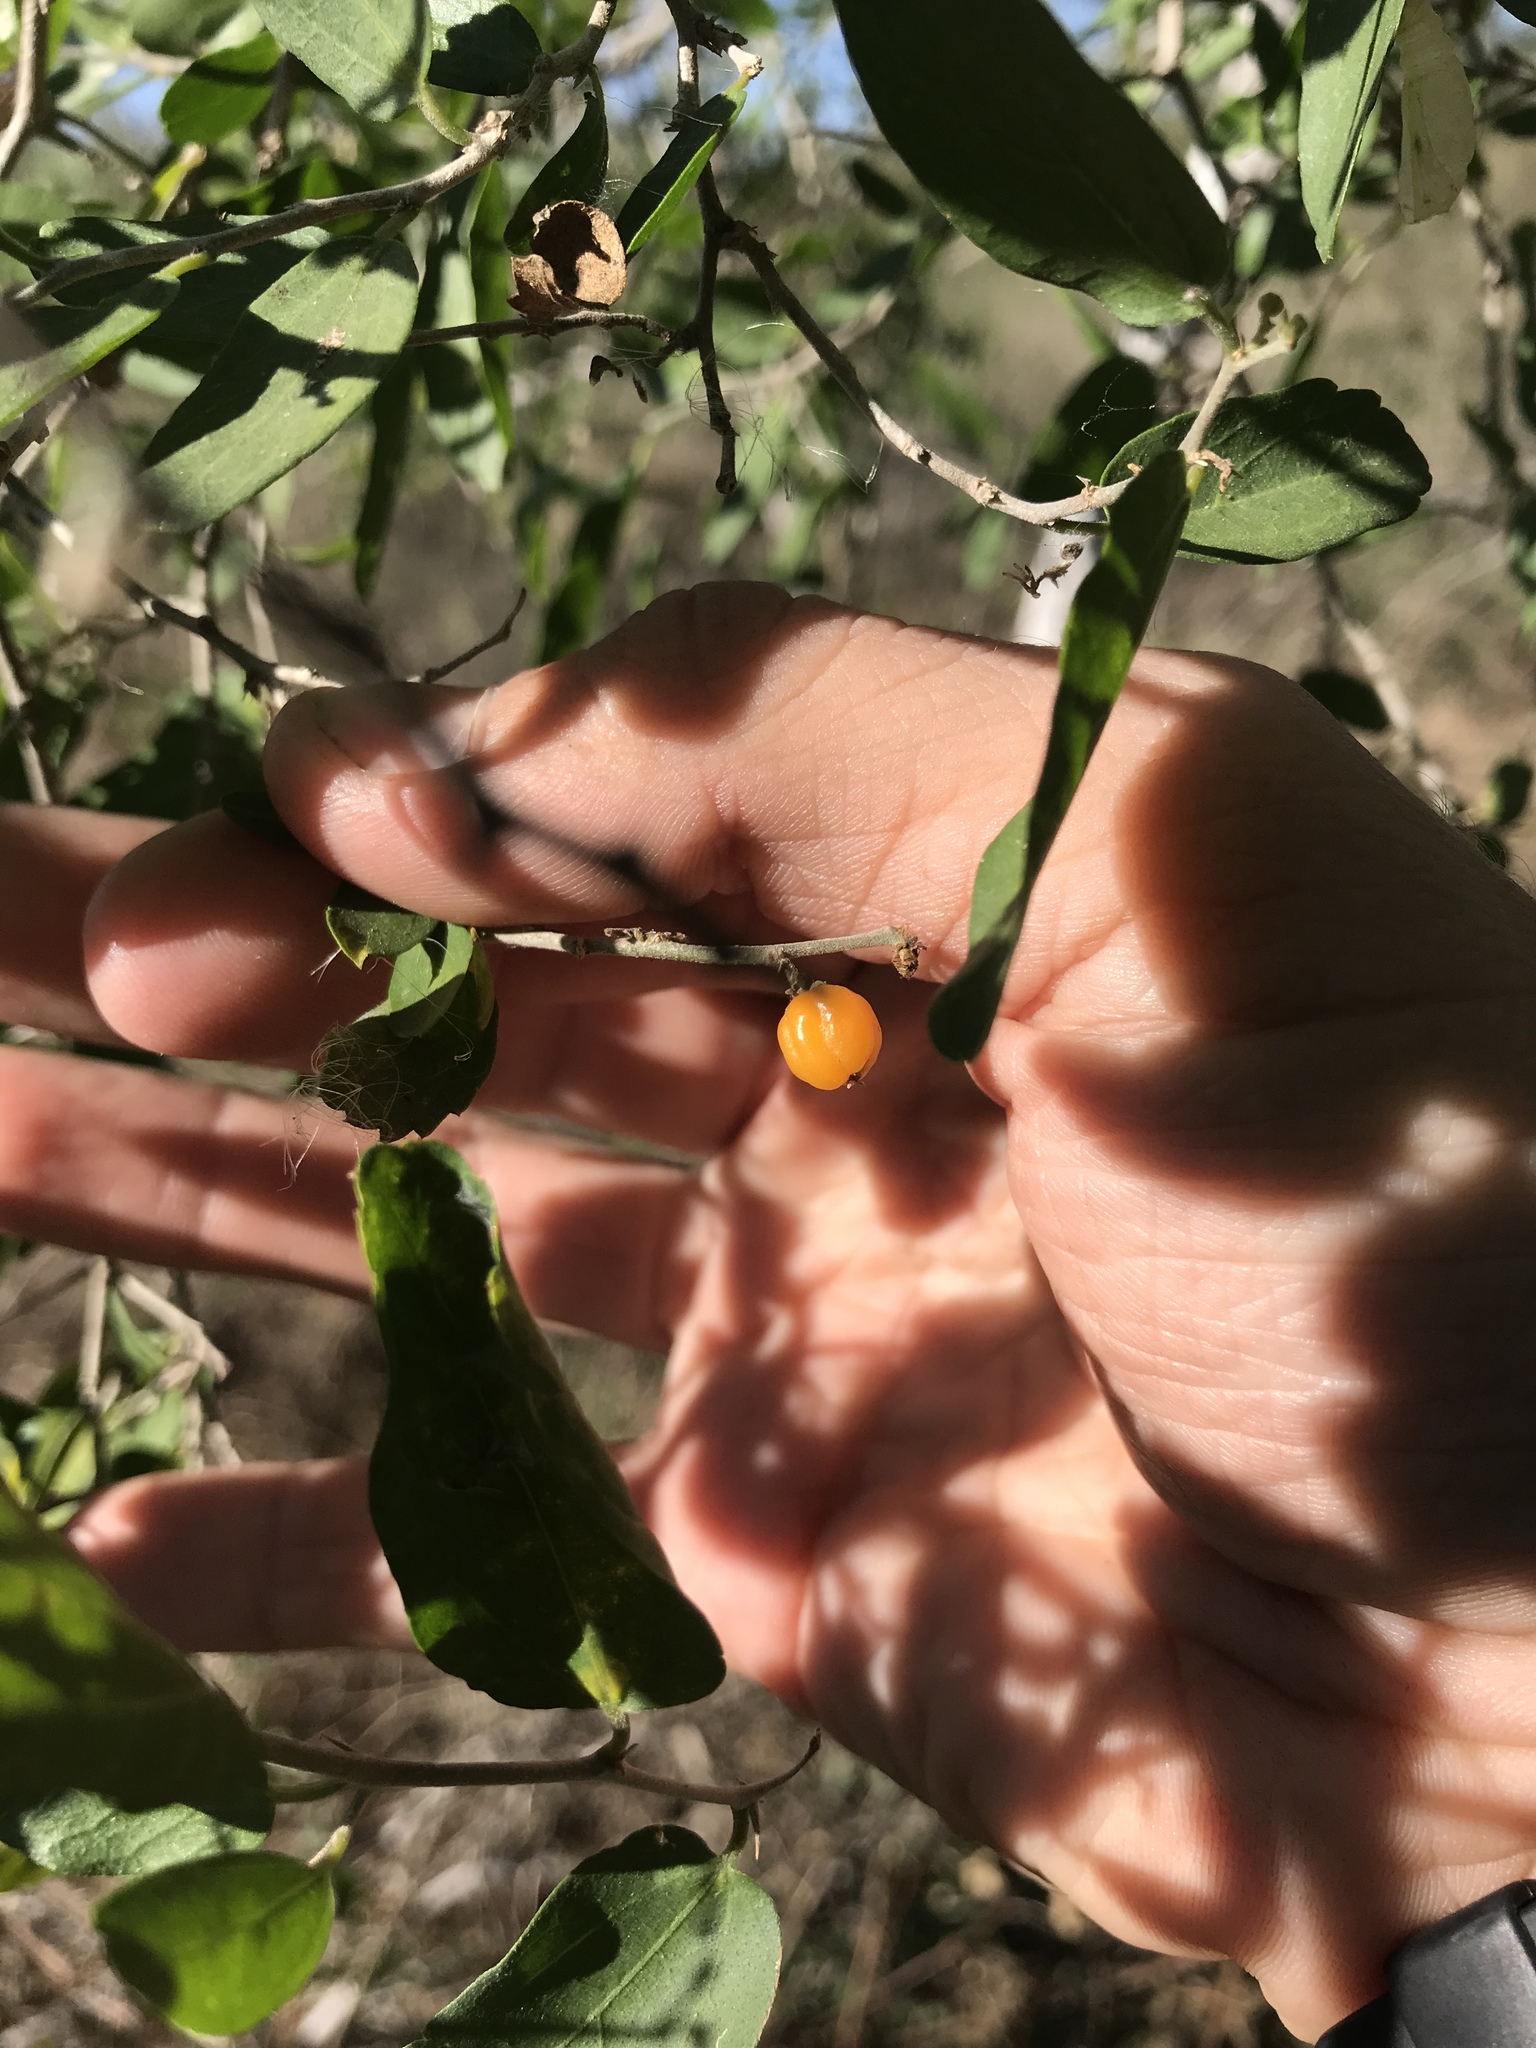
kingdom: Plantae
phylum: Tracheophyta
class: Magnoliopsida
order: Rosales
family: Cannabaceae
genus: Celtis
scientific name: Celtis pallida
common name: Desert hackberry
